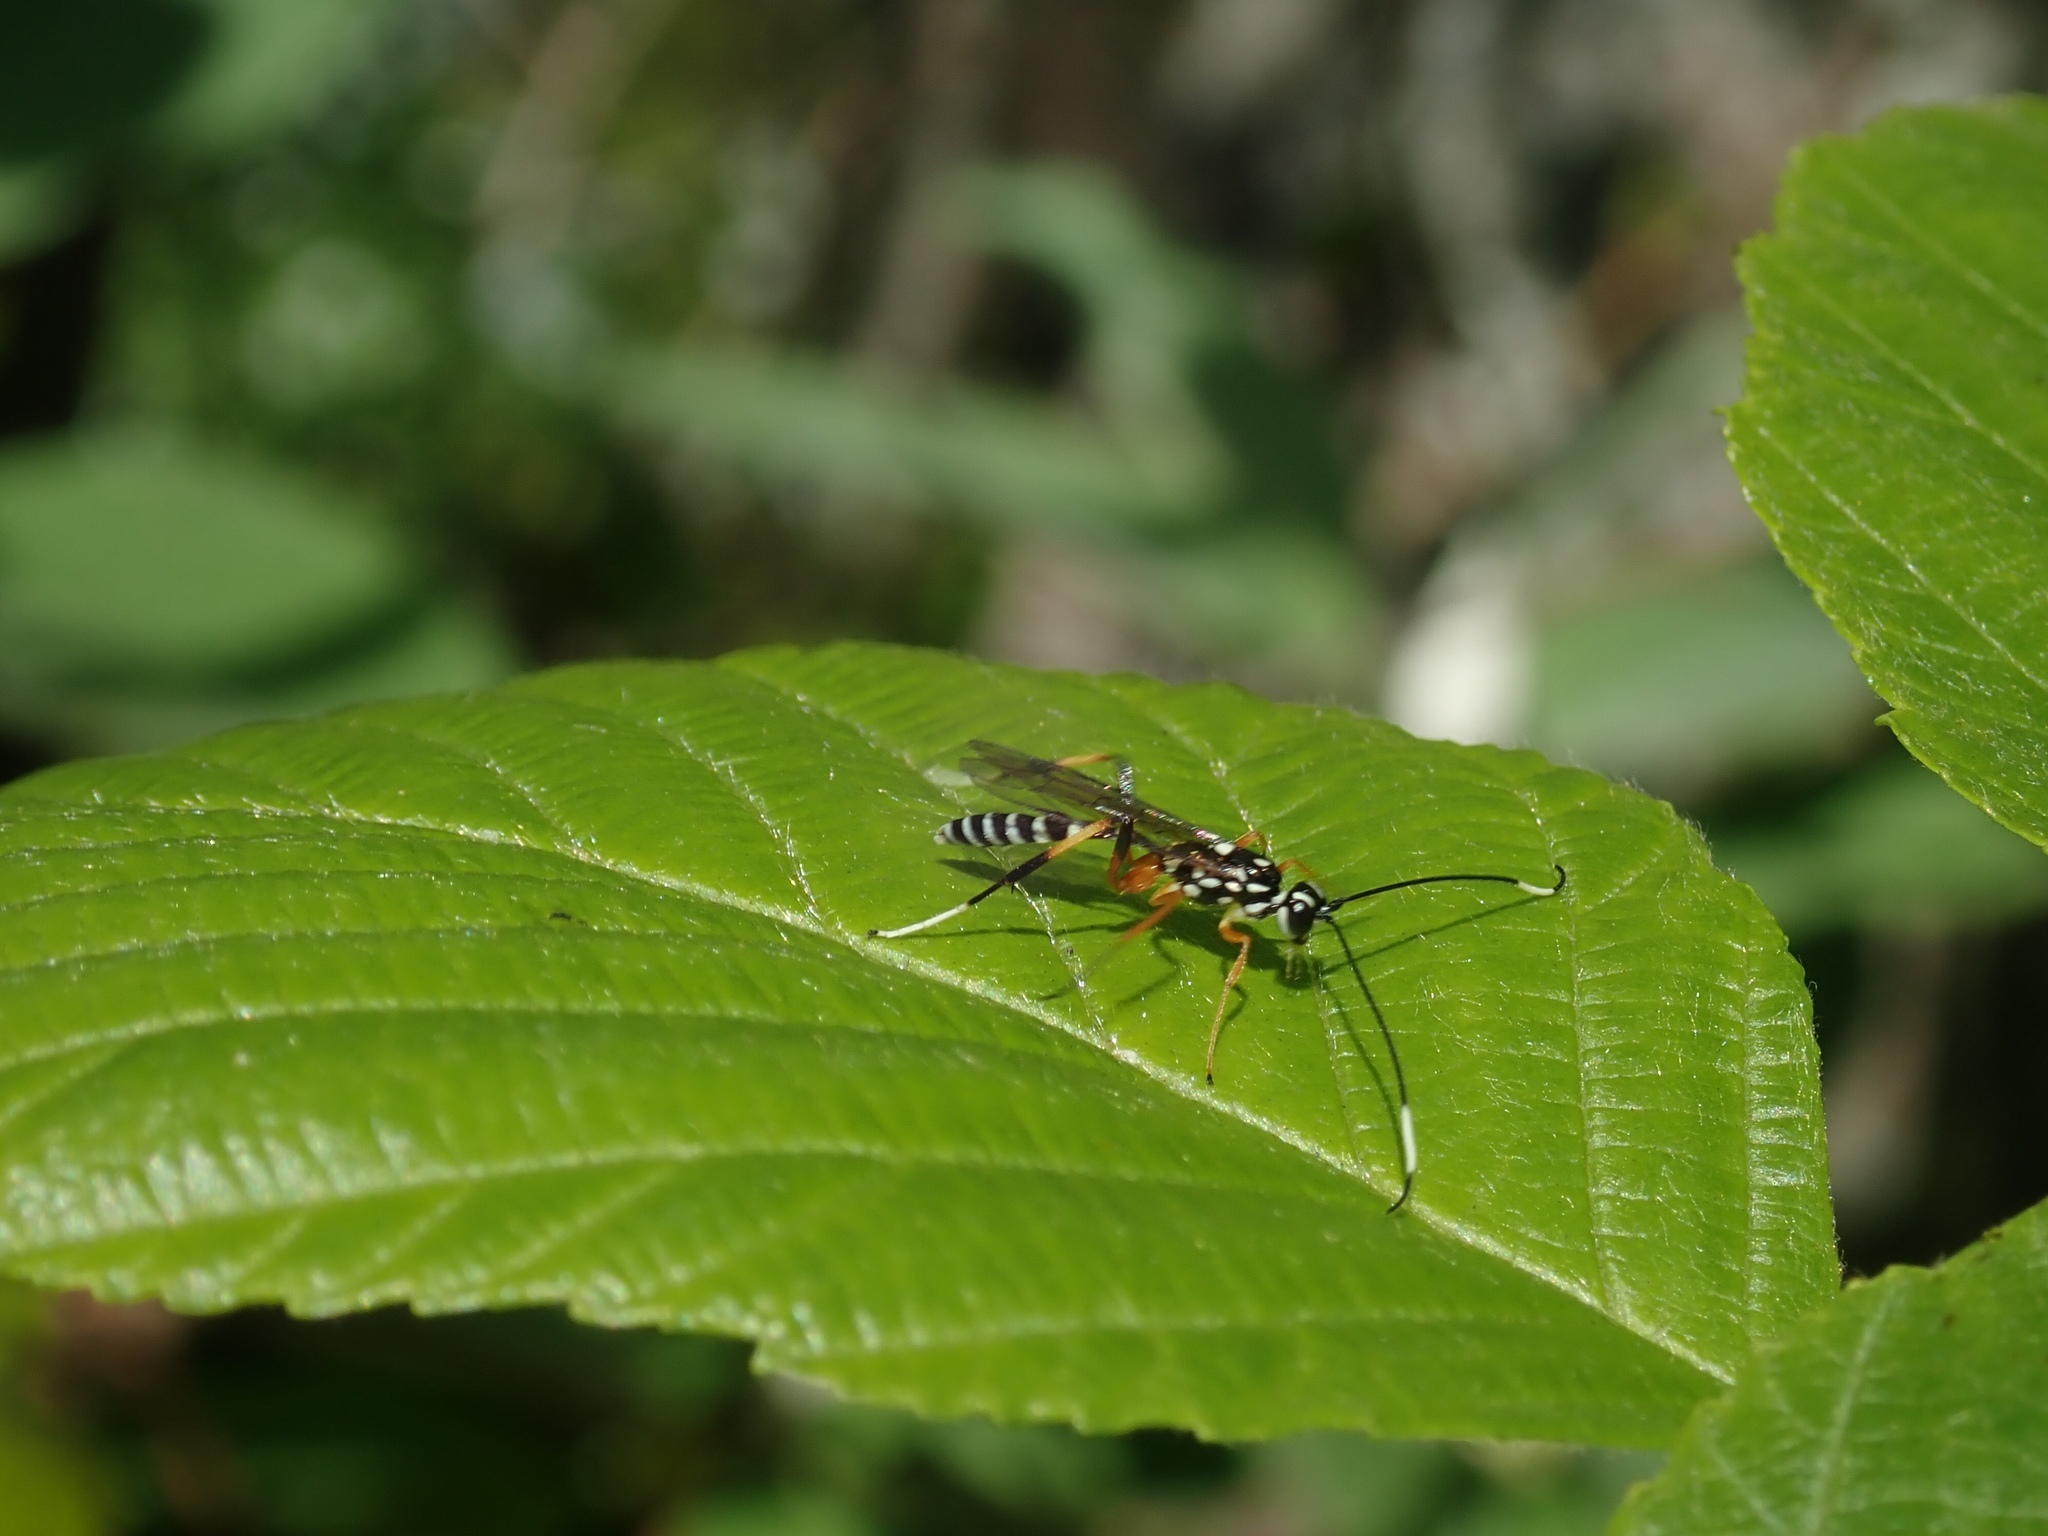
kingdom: Animalia
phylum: Arthropoda
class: Insecta
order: Hymenoptera
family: Ichneumonidae
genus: Xanthocryptus
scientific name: Xanthocryptus novozealandicus
